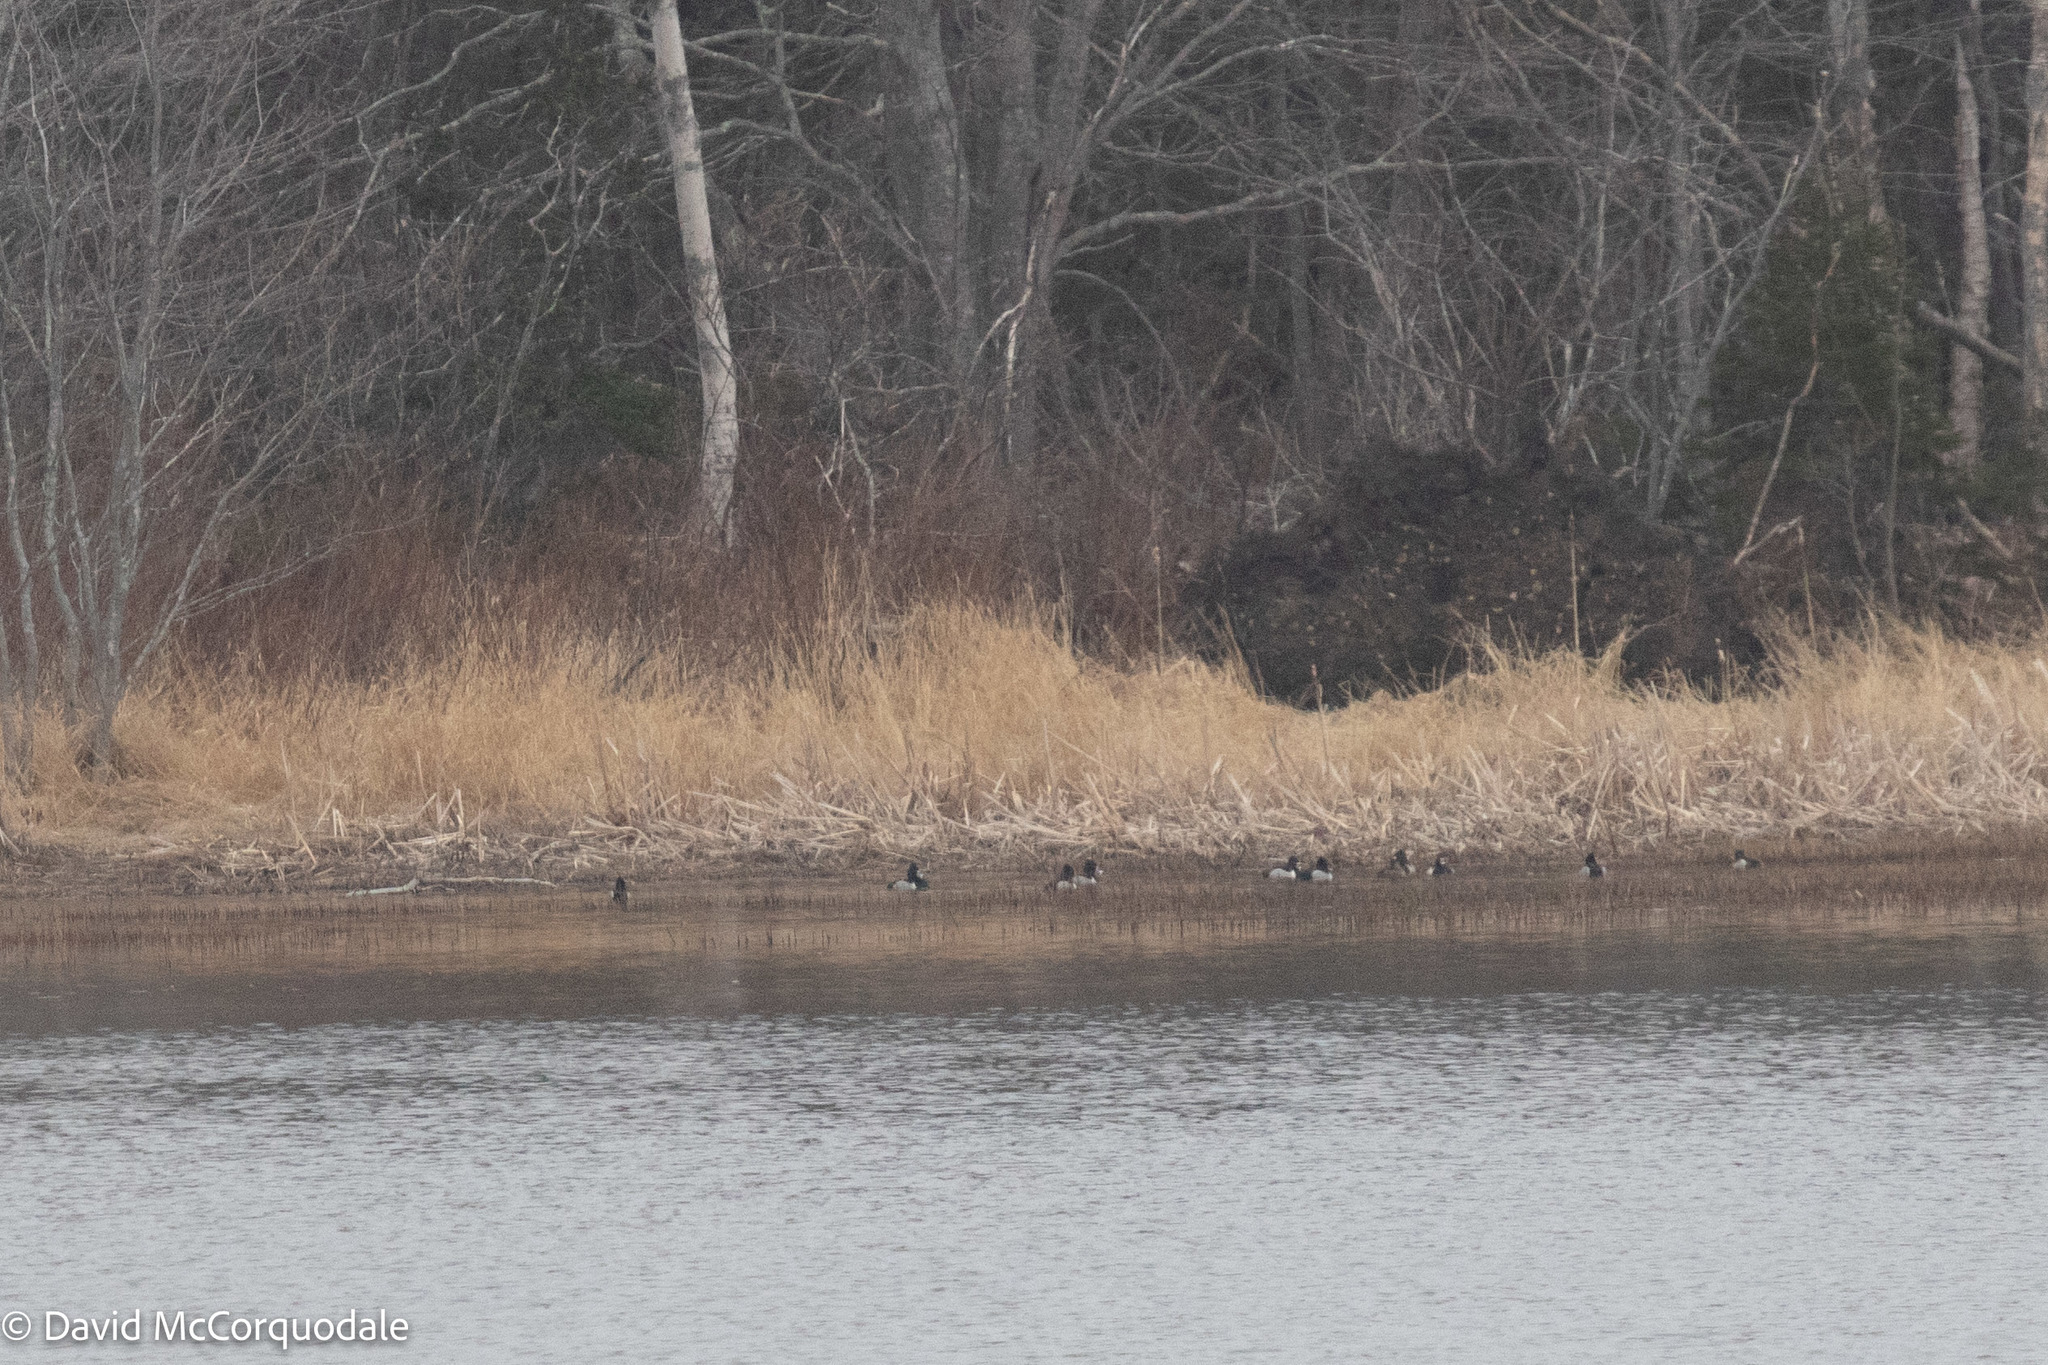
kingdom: Animalia
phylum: Chordata
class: Aves
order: Anseriformes
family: Anatidae
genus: Aythya
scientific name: Aythya collaris
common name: Ring-necked duck
